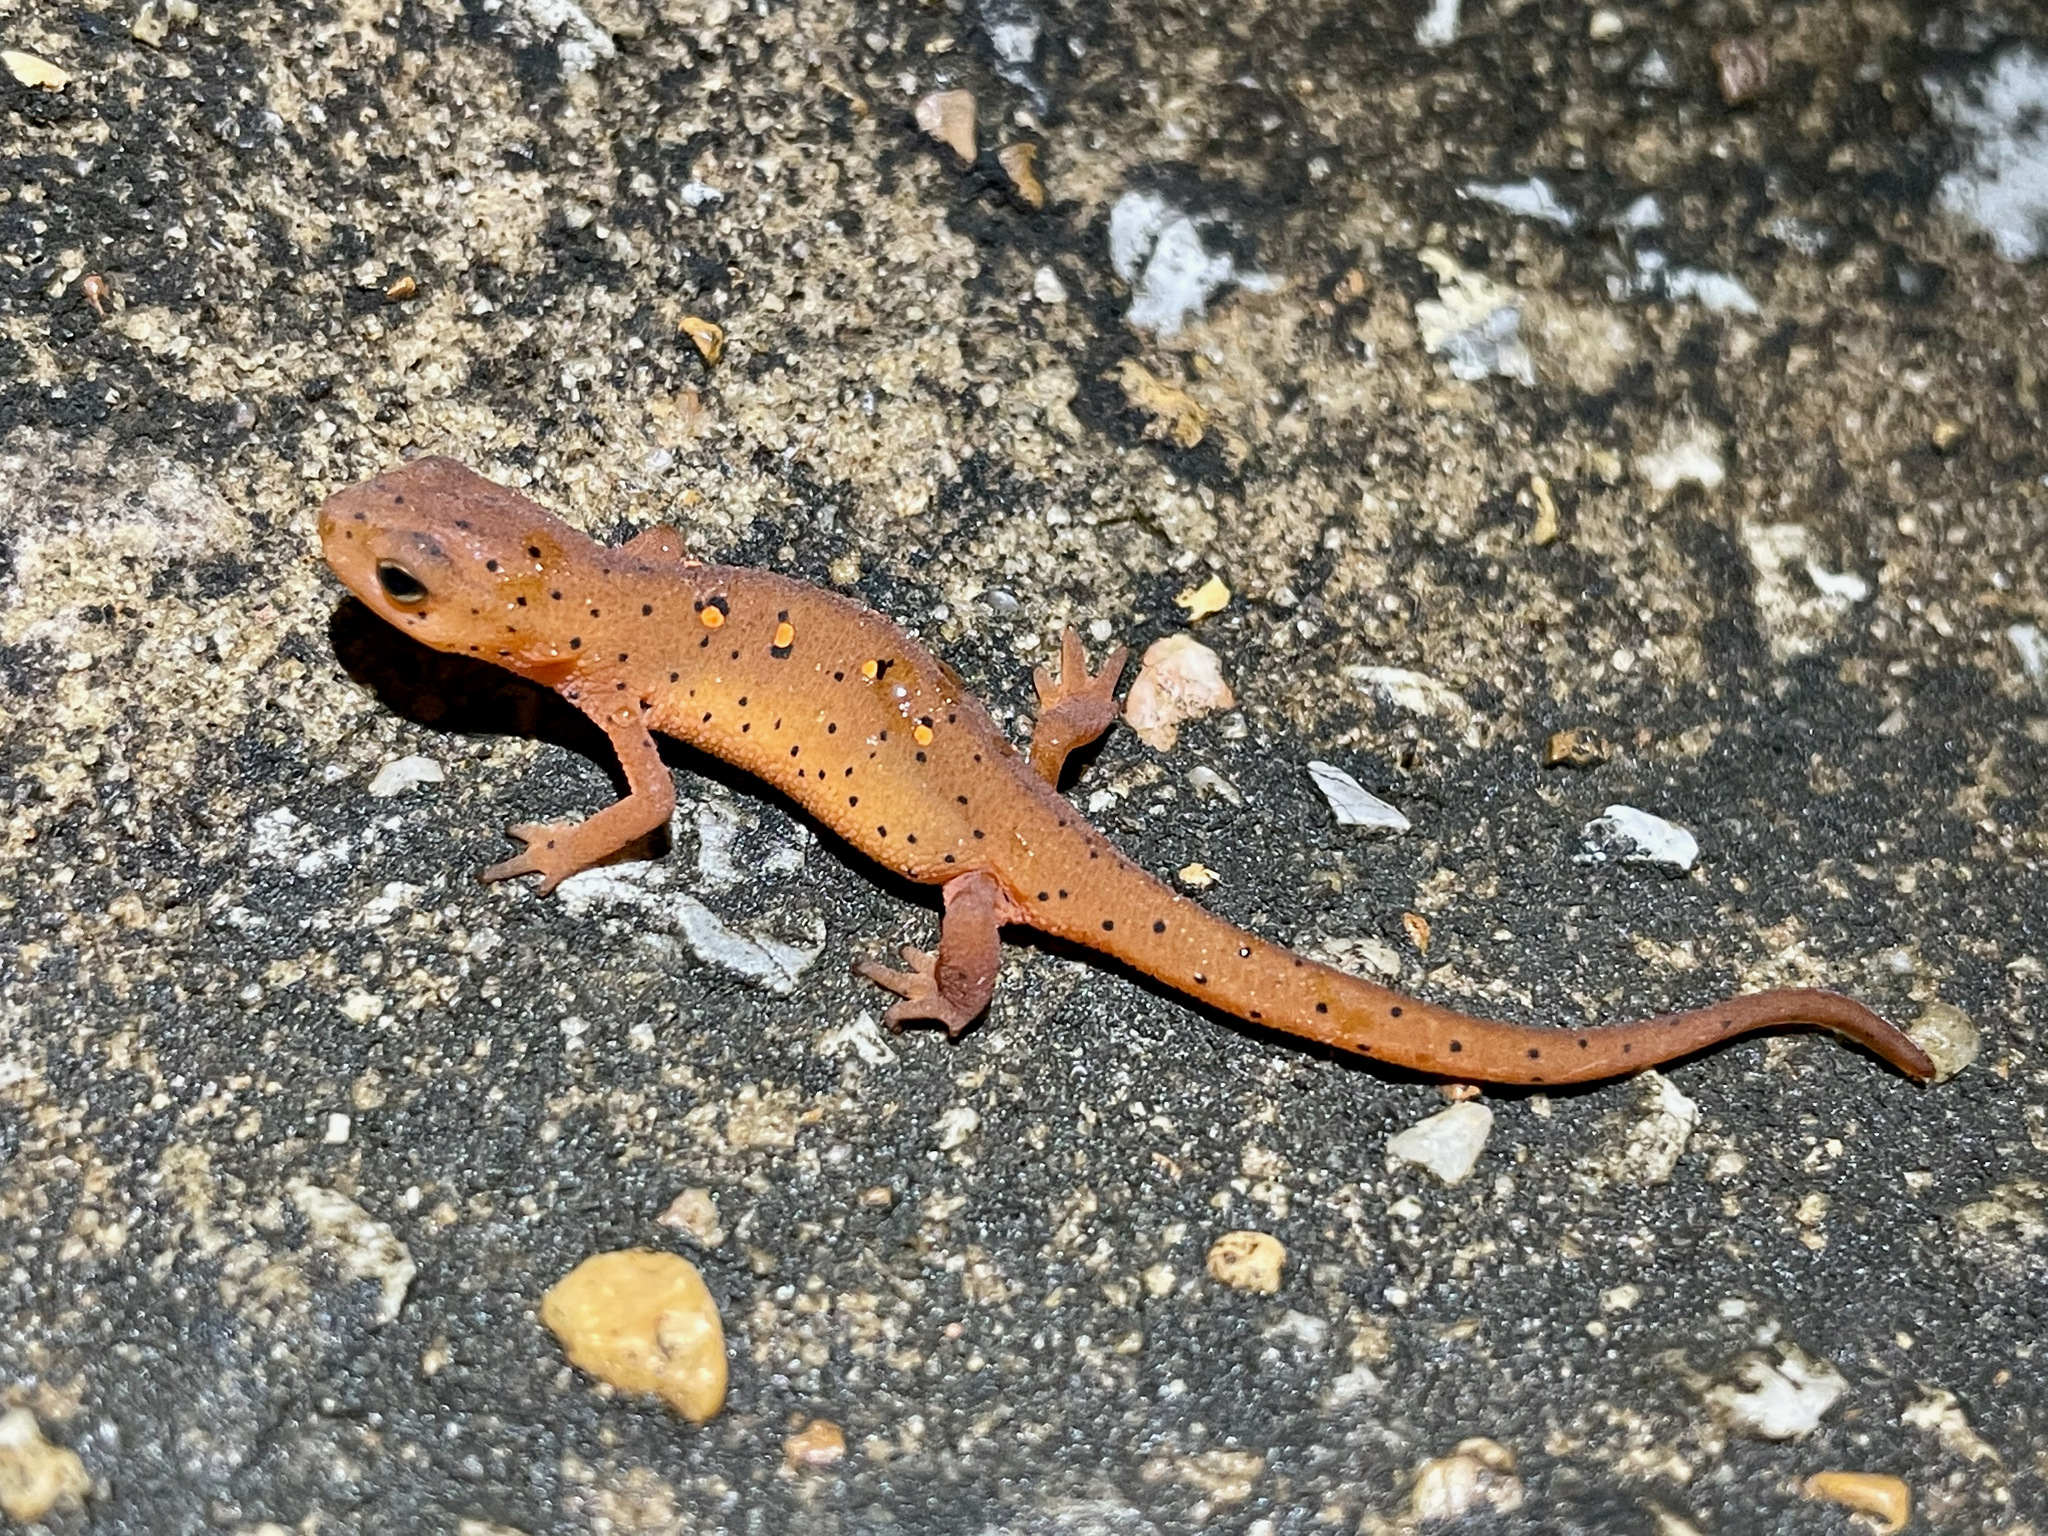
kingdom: Animalia
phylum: Chordata
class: Amphibia
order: Caudata
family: Salamandridae
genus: Notophthalmus
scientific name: Notophthalmus viridescens
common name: Eastern newt
